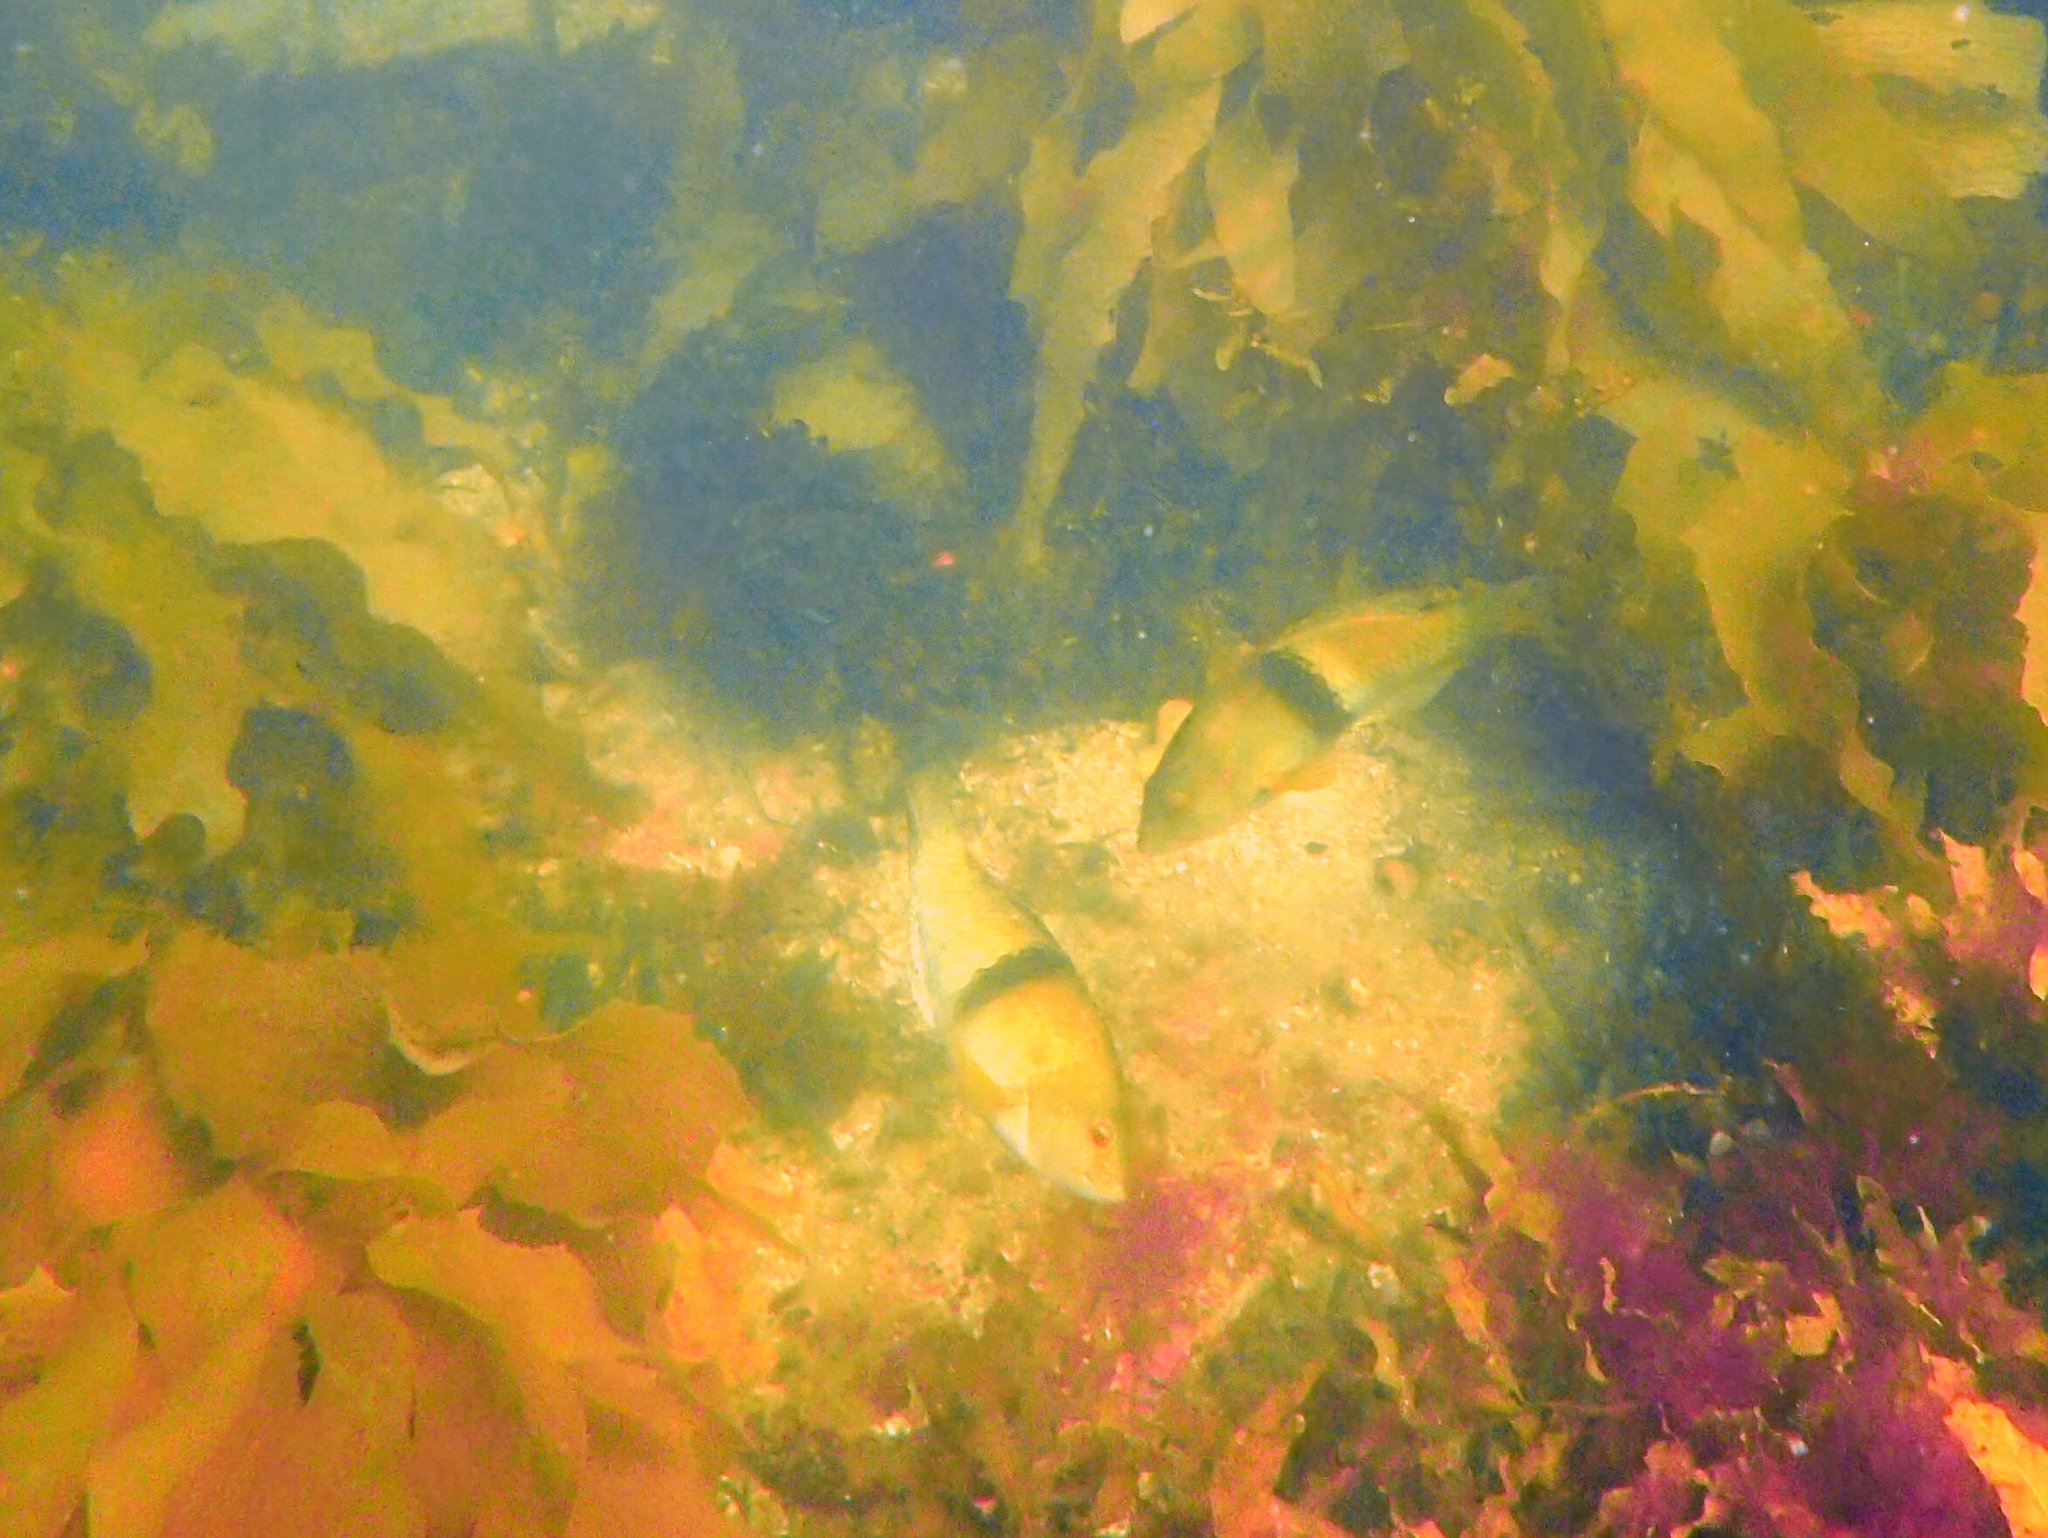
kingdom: Animalia
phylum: Chordata
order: Perciformes
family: Labridae
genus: Notolabrus
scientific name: Notolabrus tetricus
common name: Blue-throated parrotfish
